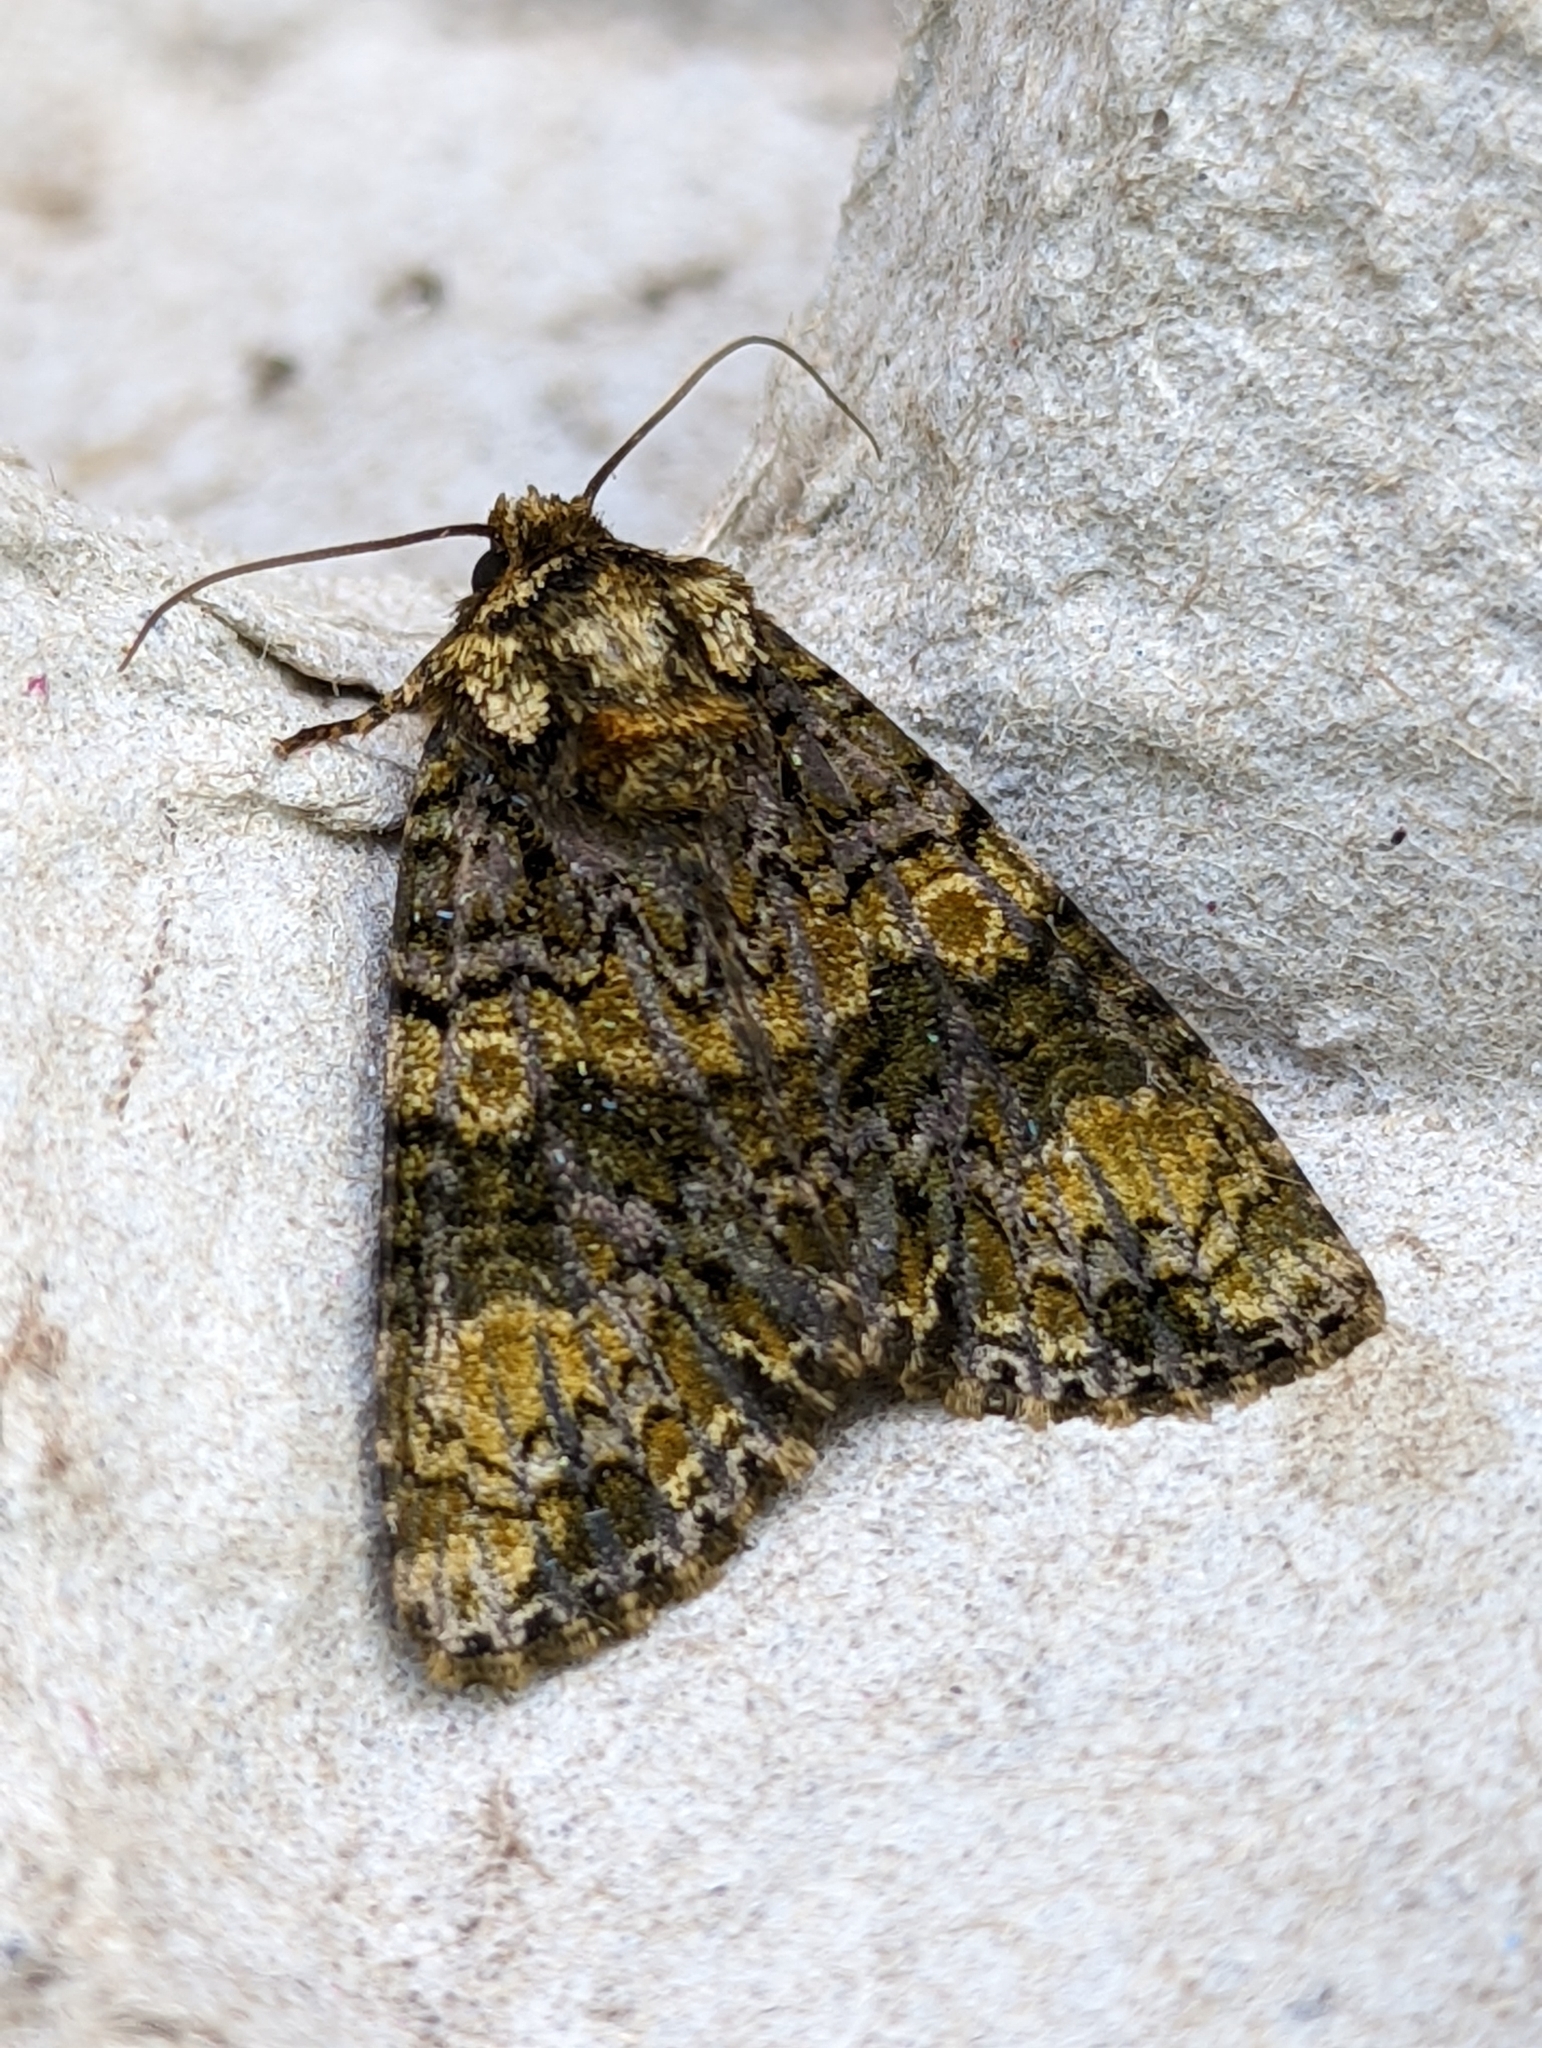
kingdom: Animalia
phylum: Arthropoda
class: Insecta
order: Lepidoptera
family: Noctuidae
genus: Craniophora
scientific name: Craniophora ligustri
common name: Coronet
